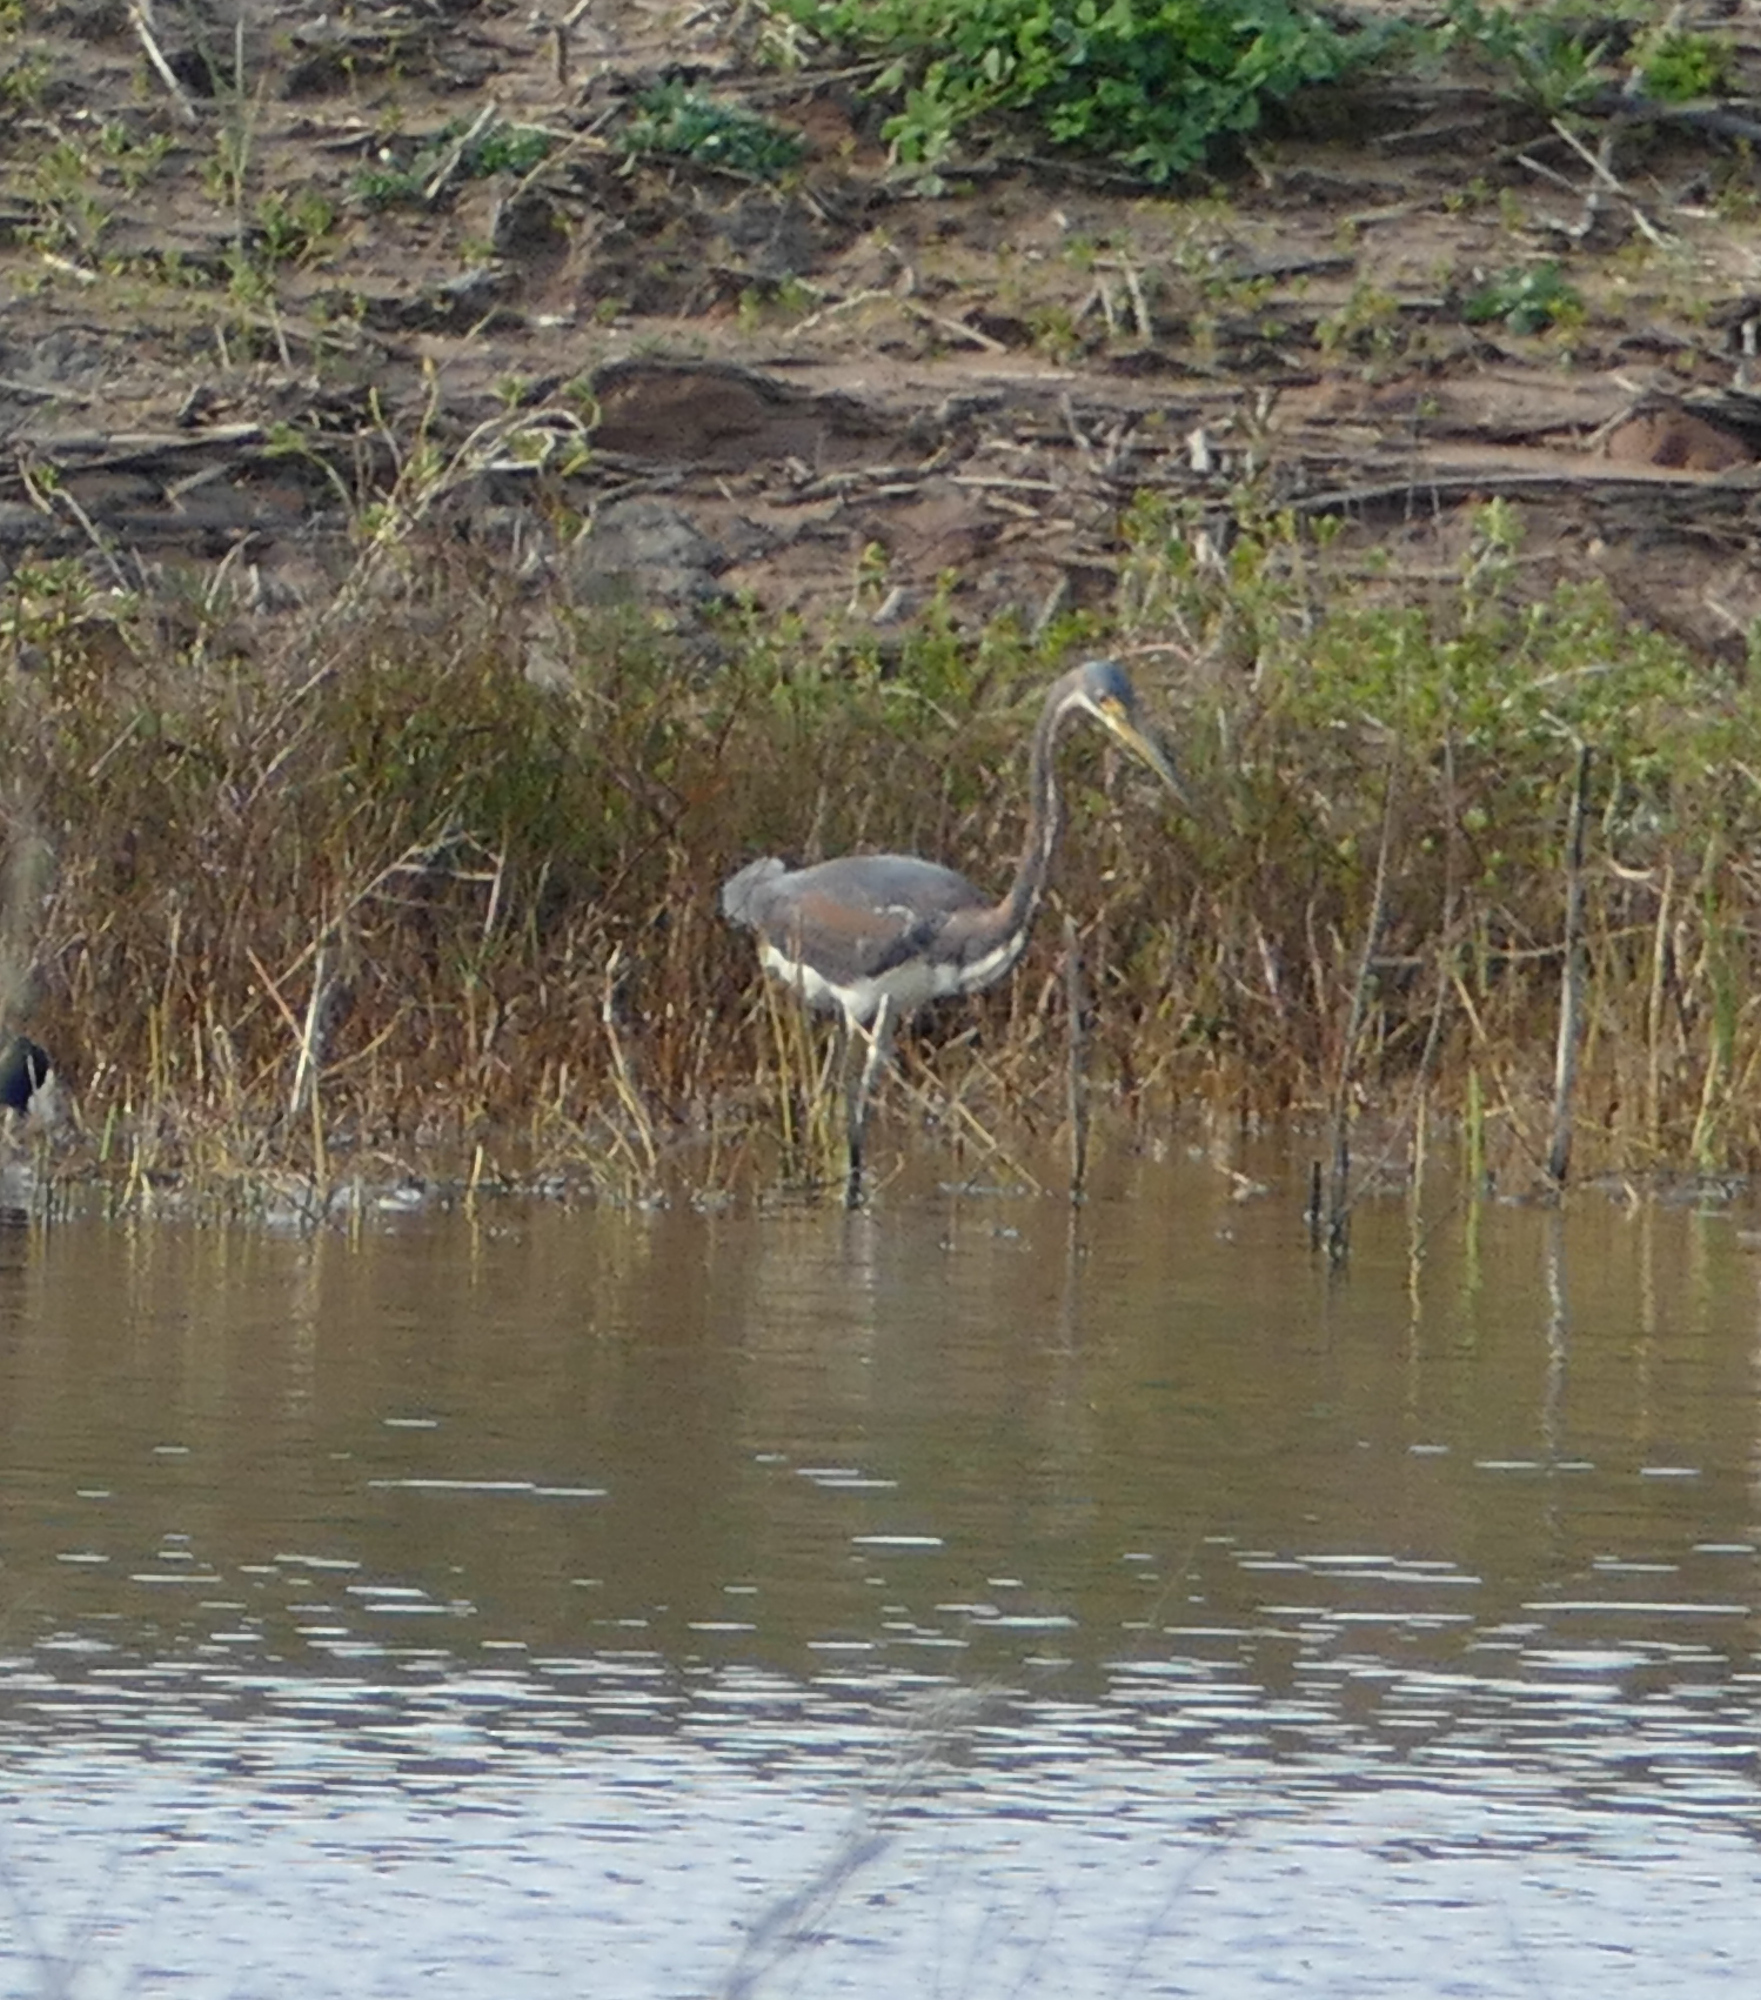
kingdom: Animalia
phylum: Chordata
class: Aves
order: Pelecaniformes
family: Ardeidae
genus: Egretta
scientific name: Egretta tricolor
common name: Tricolored heron
